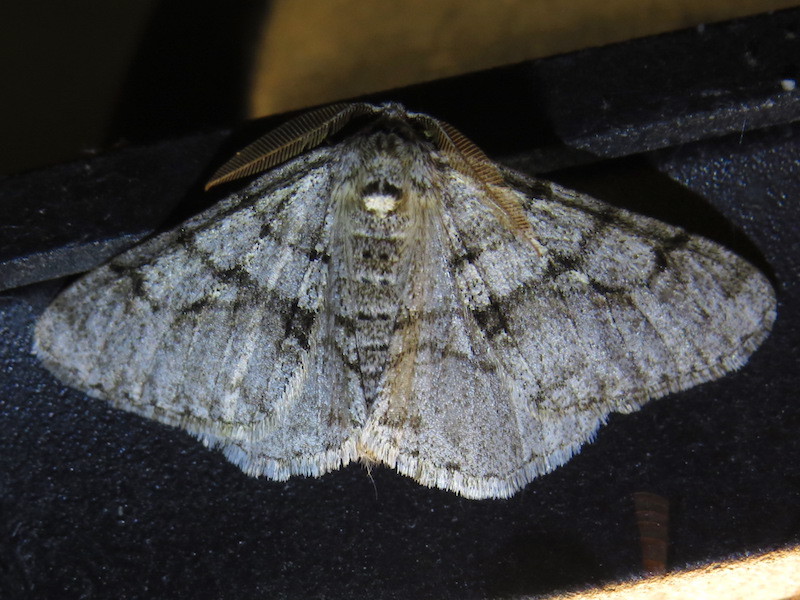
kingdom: Animalia
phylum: Arthropoda
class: Insecta
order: Lepidoptera
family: Geometridae
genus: Phigalia
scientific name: Phigalia titea
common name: Spiny looper
